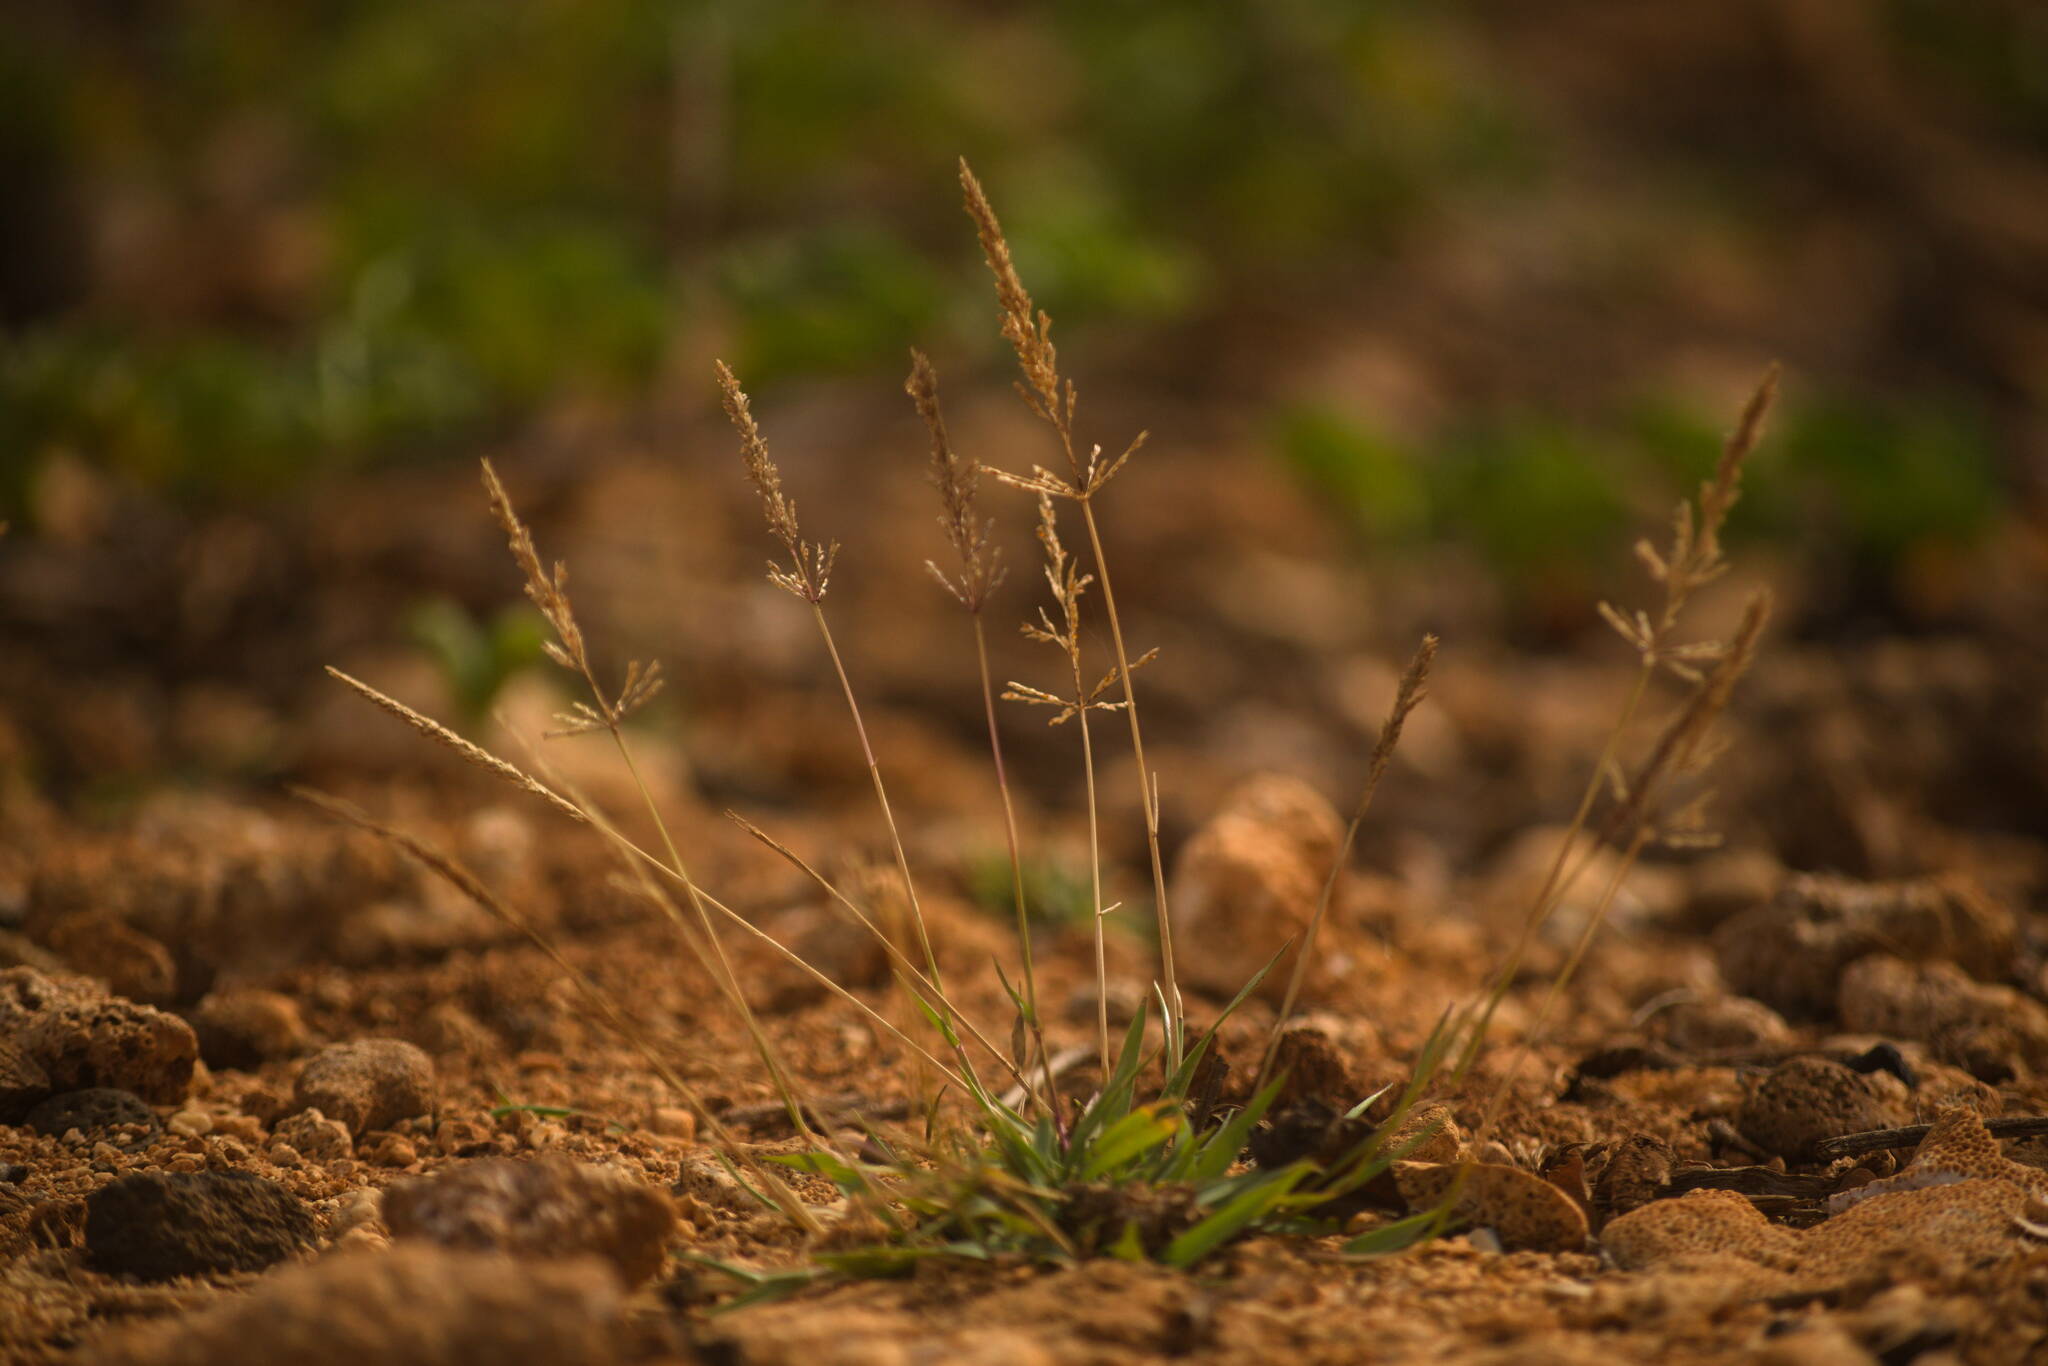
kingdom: Plantae
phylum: Tracheophyta
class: Liliopsida
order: Poales
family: Poaceae
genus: Sporobolus
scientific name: Sporobolus pyramidatus
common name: Whorled dropseed
